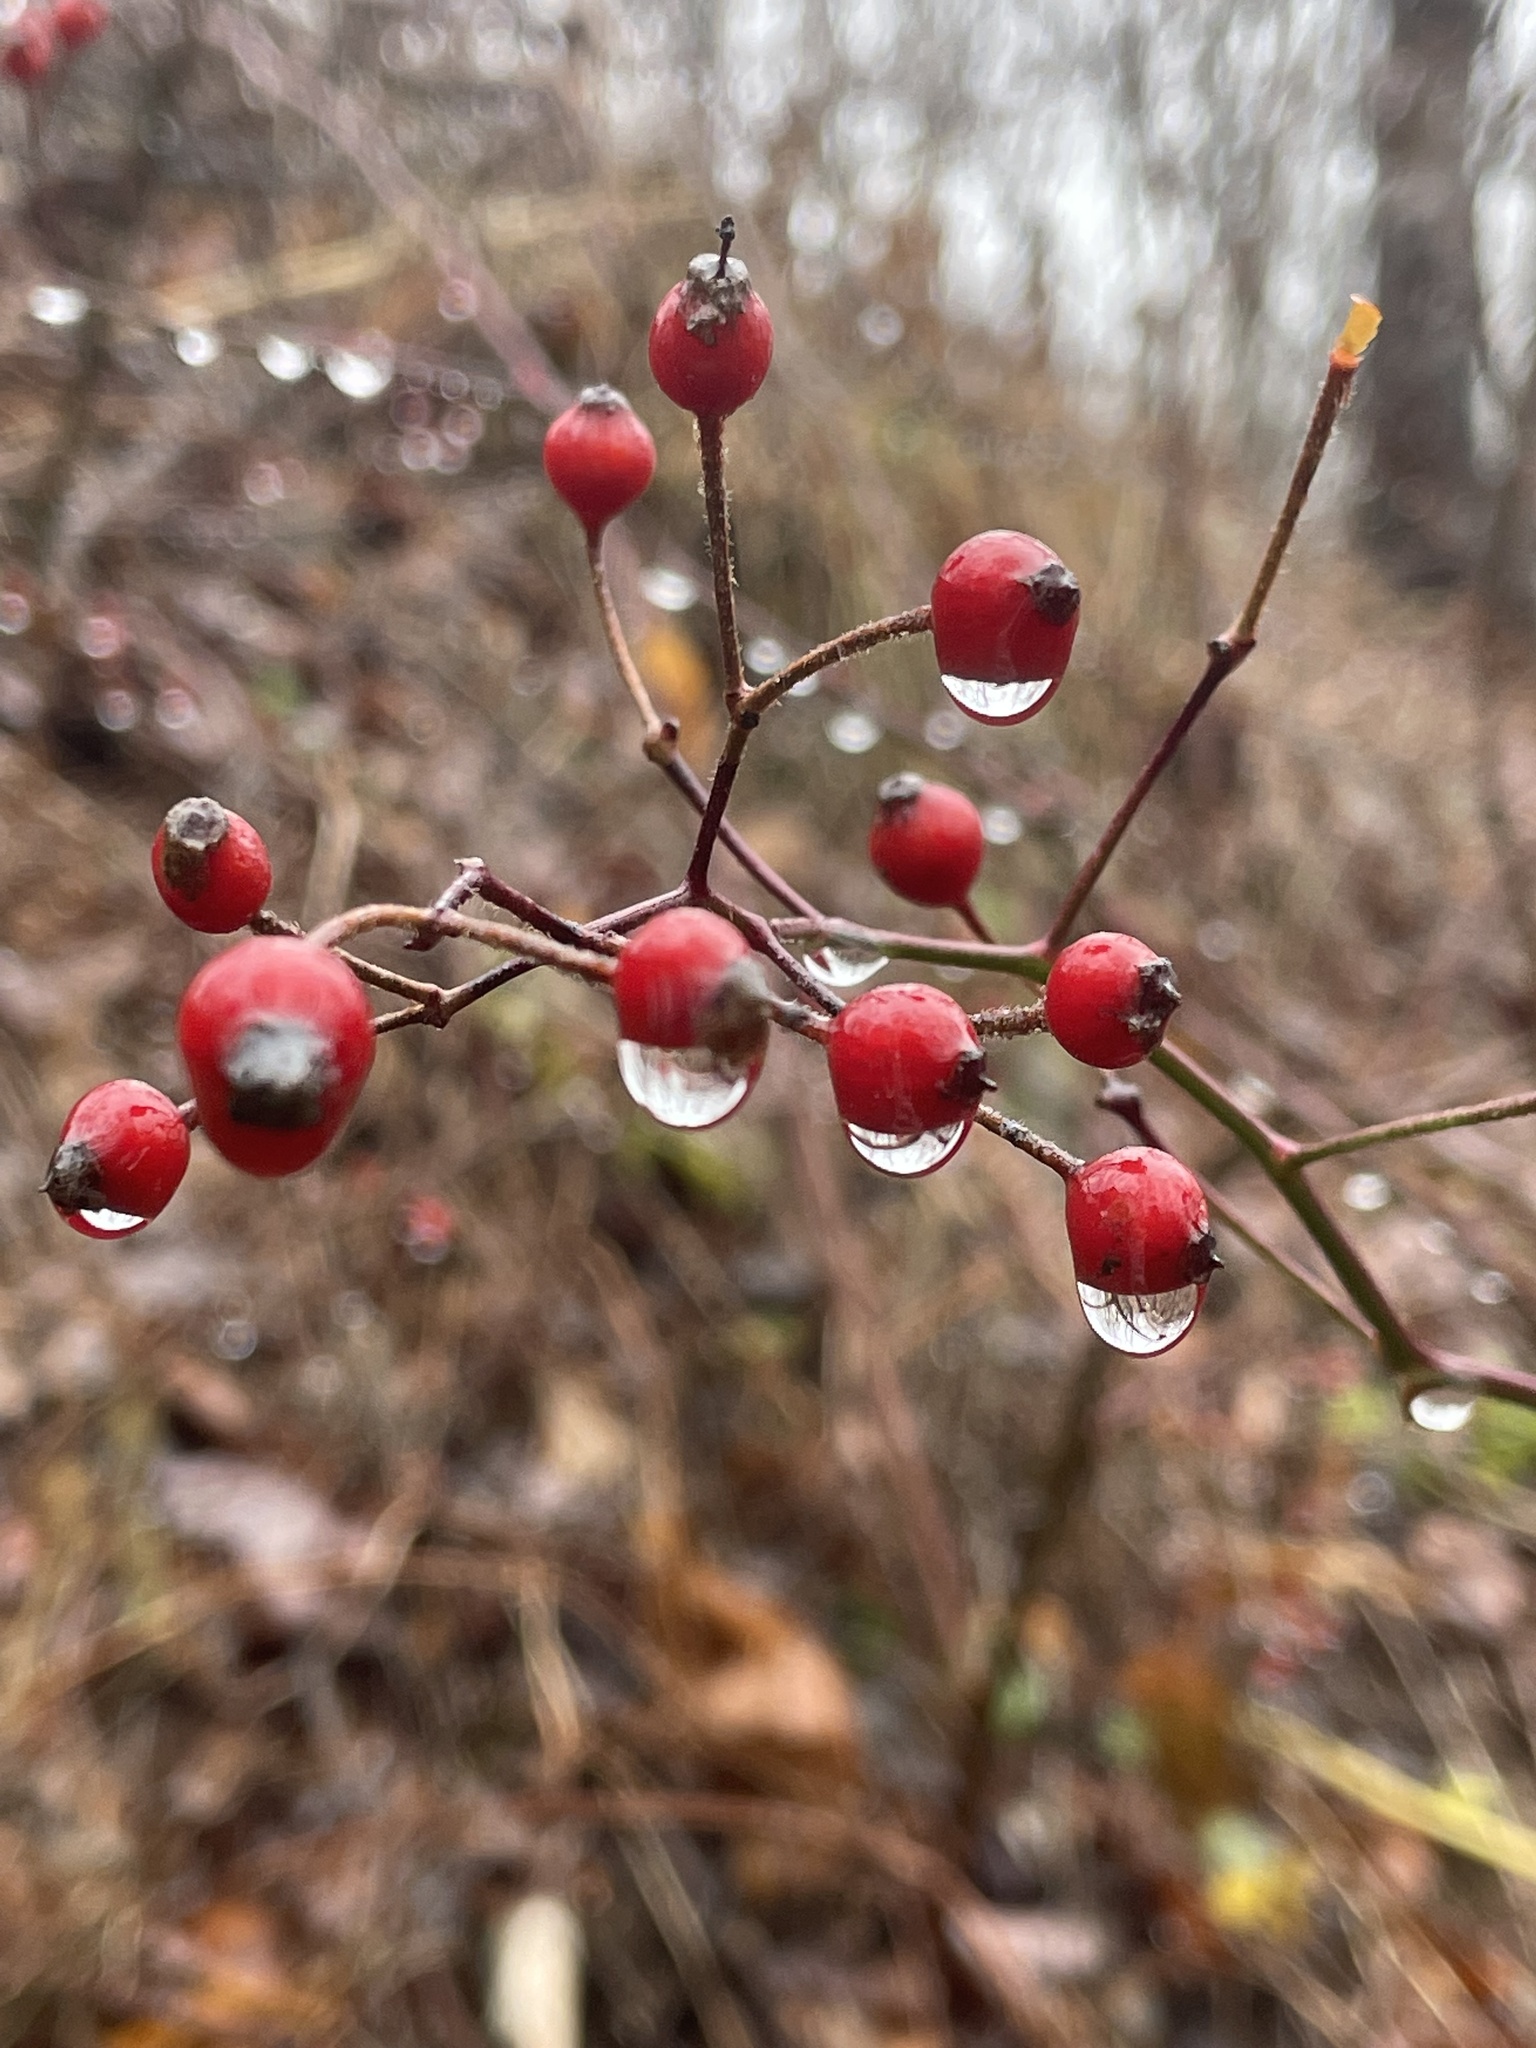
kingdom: Plantae
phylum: Tracheophyta
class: Magnoliopsida
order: Rosales
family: Rosaceae
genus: Rosa
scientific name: Rosa multiflora
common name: Multiflora rose
